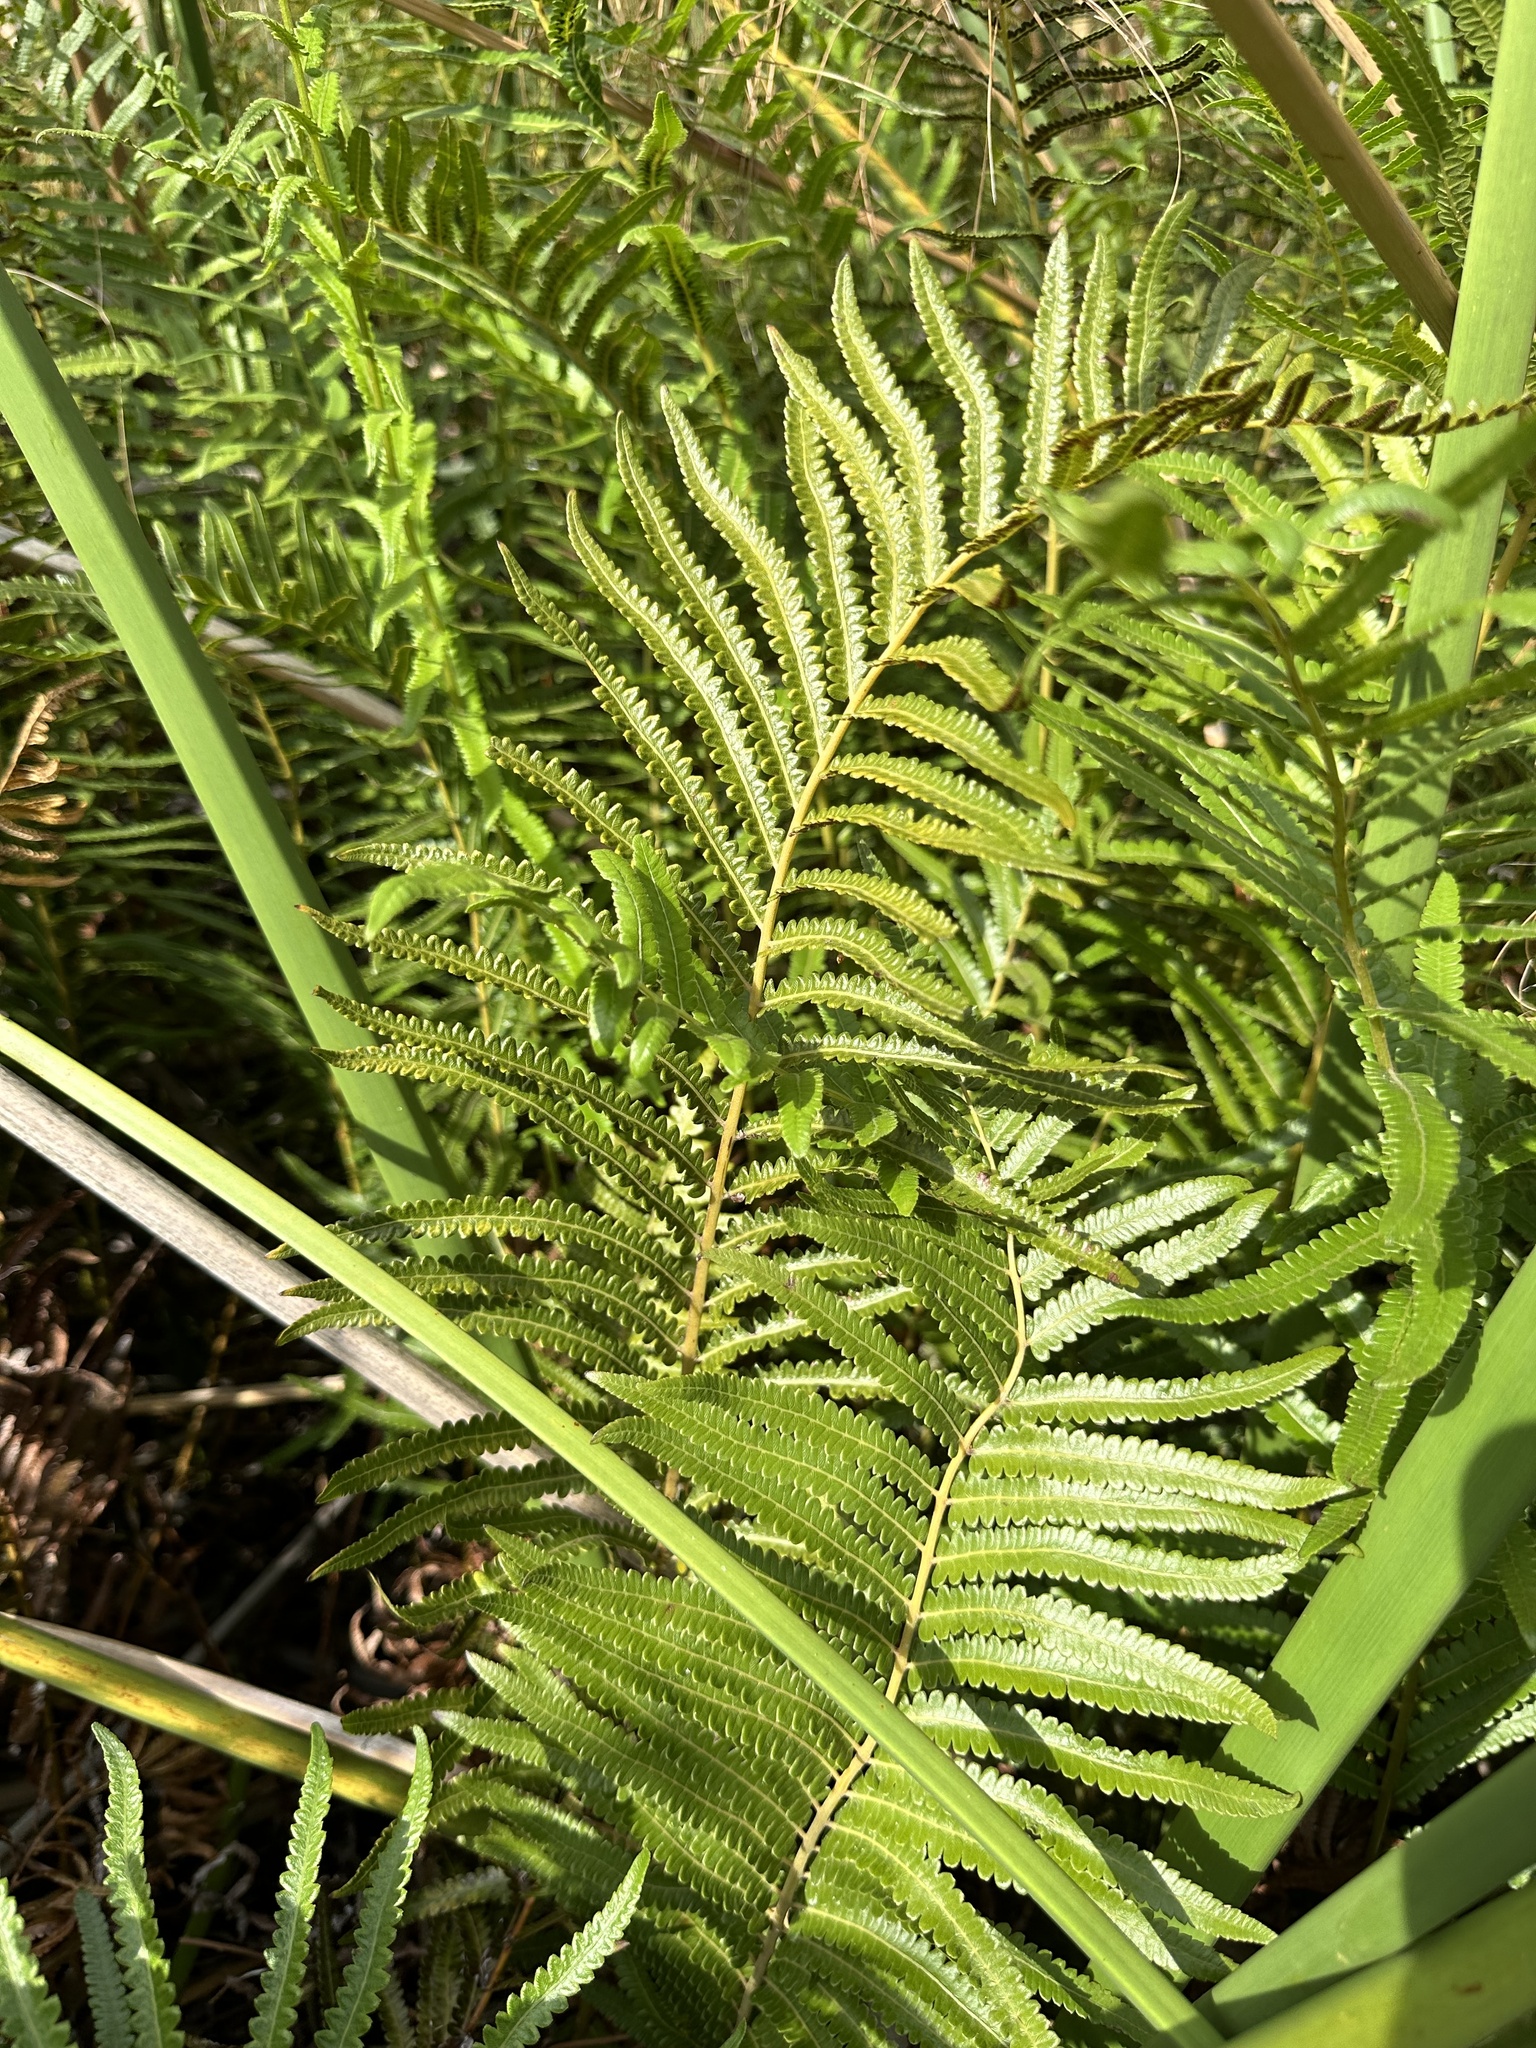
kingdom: Plantae
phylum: Tracheophyta
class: Polypodiopsida
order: Polypodiales
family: Thelypteridaceae
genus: Cyclosorus
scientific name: Cyclosorus interruptus
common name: Neke fern
